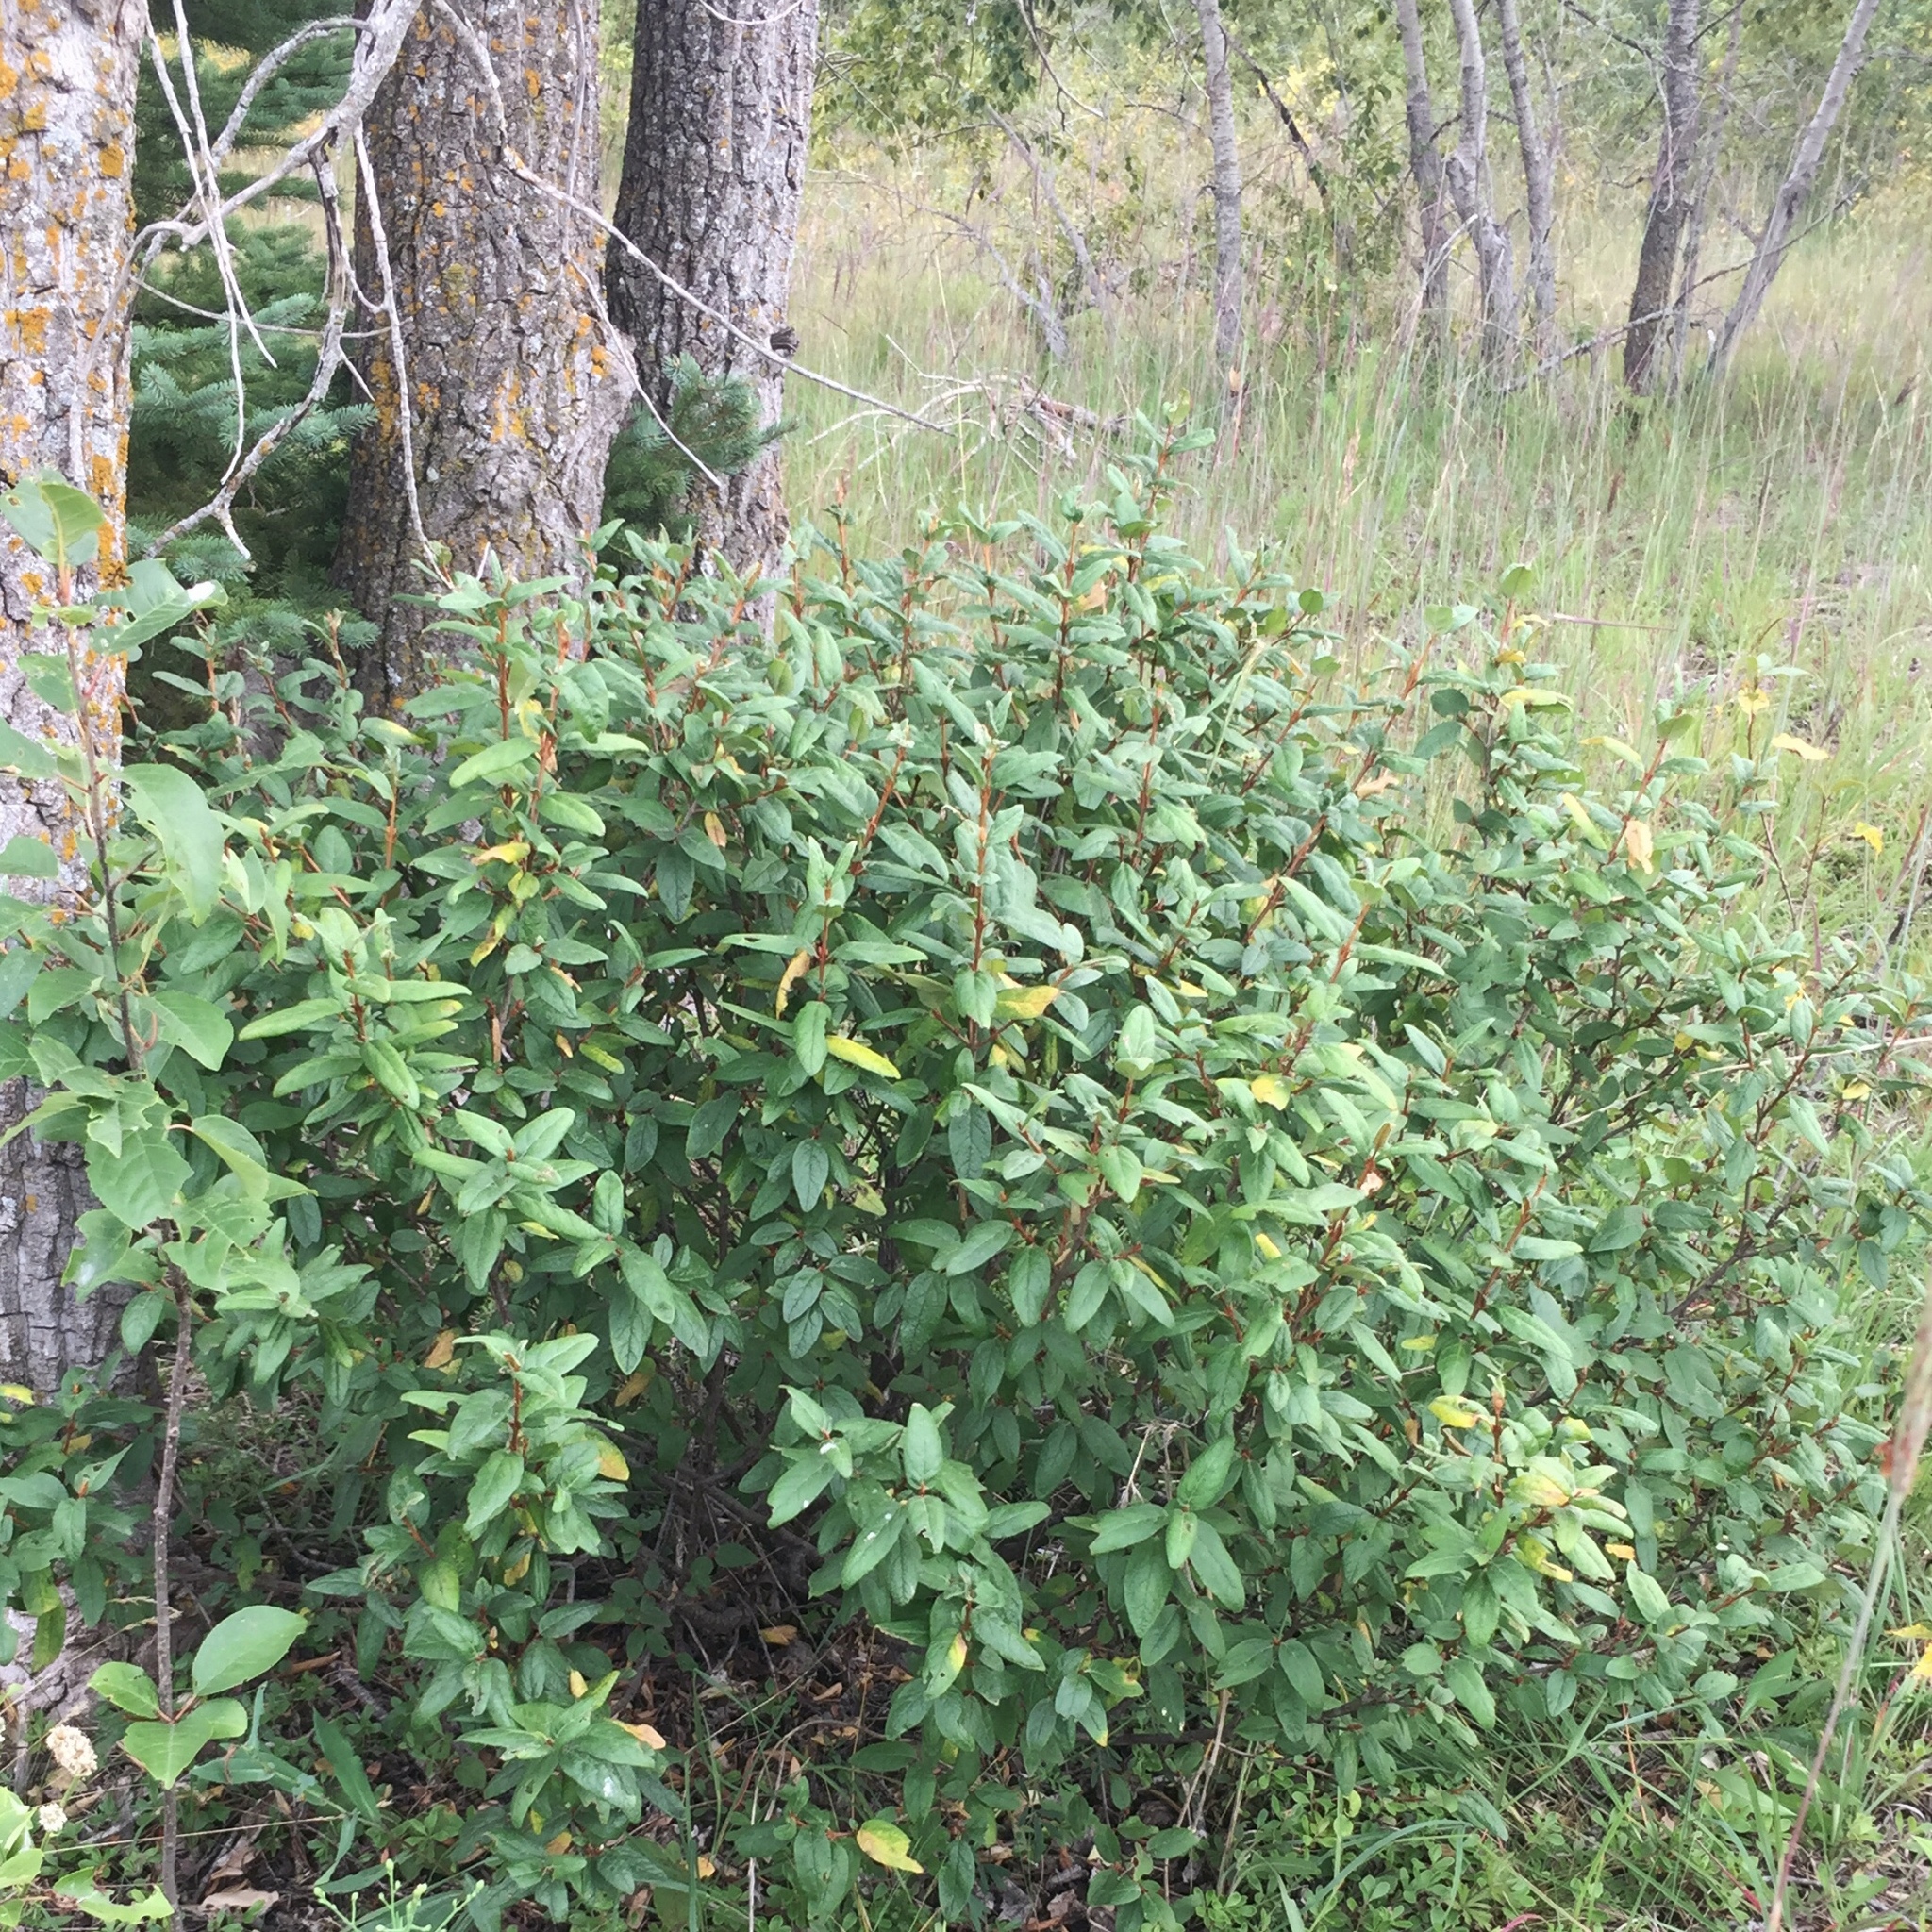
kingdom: Plantae
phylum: Tracheophyta
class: Magnoliopsida
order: Rosales
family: Elaeagnaceae
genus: Shepherdia
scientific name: Shepherdia canadensis
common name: Soapberry
